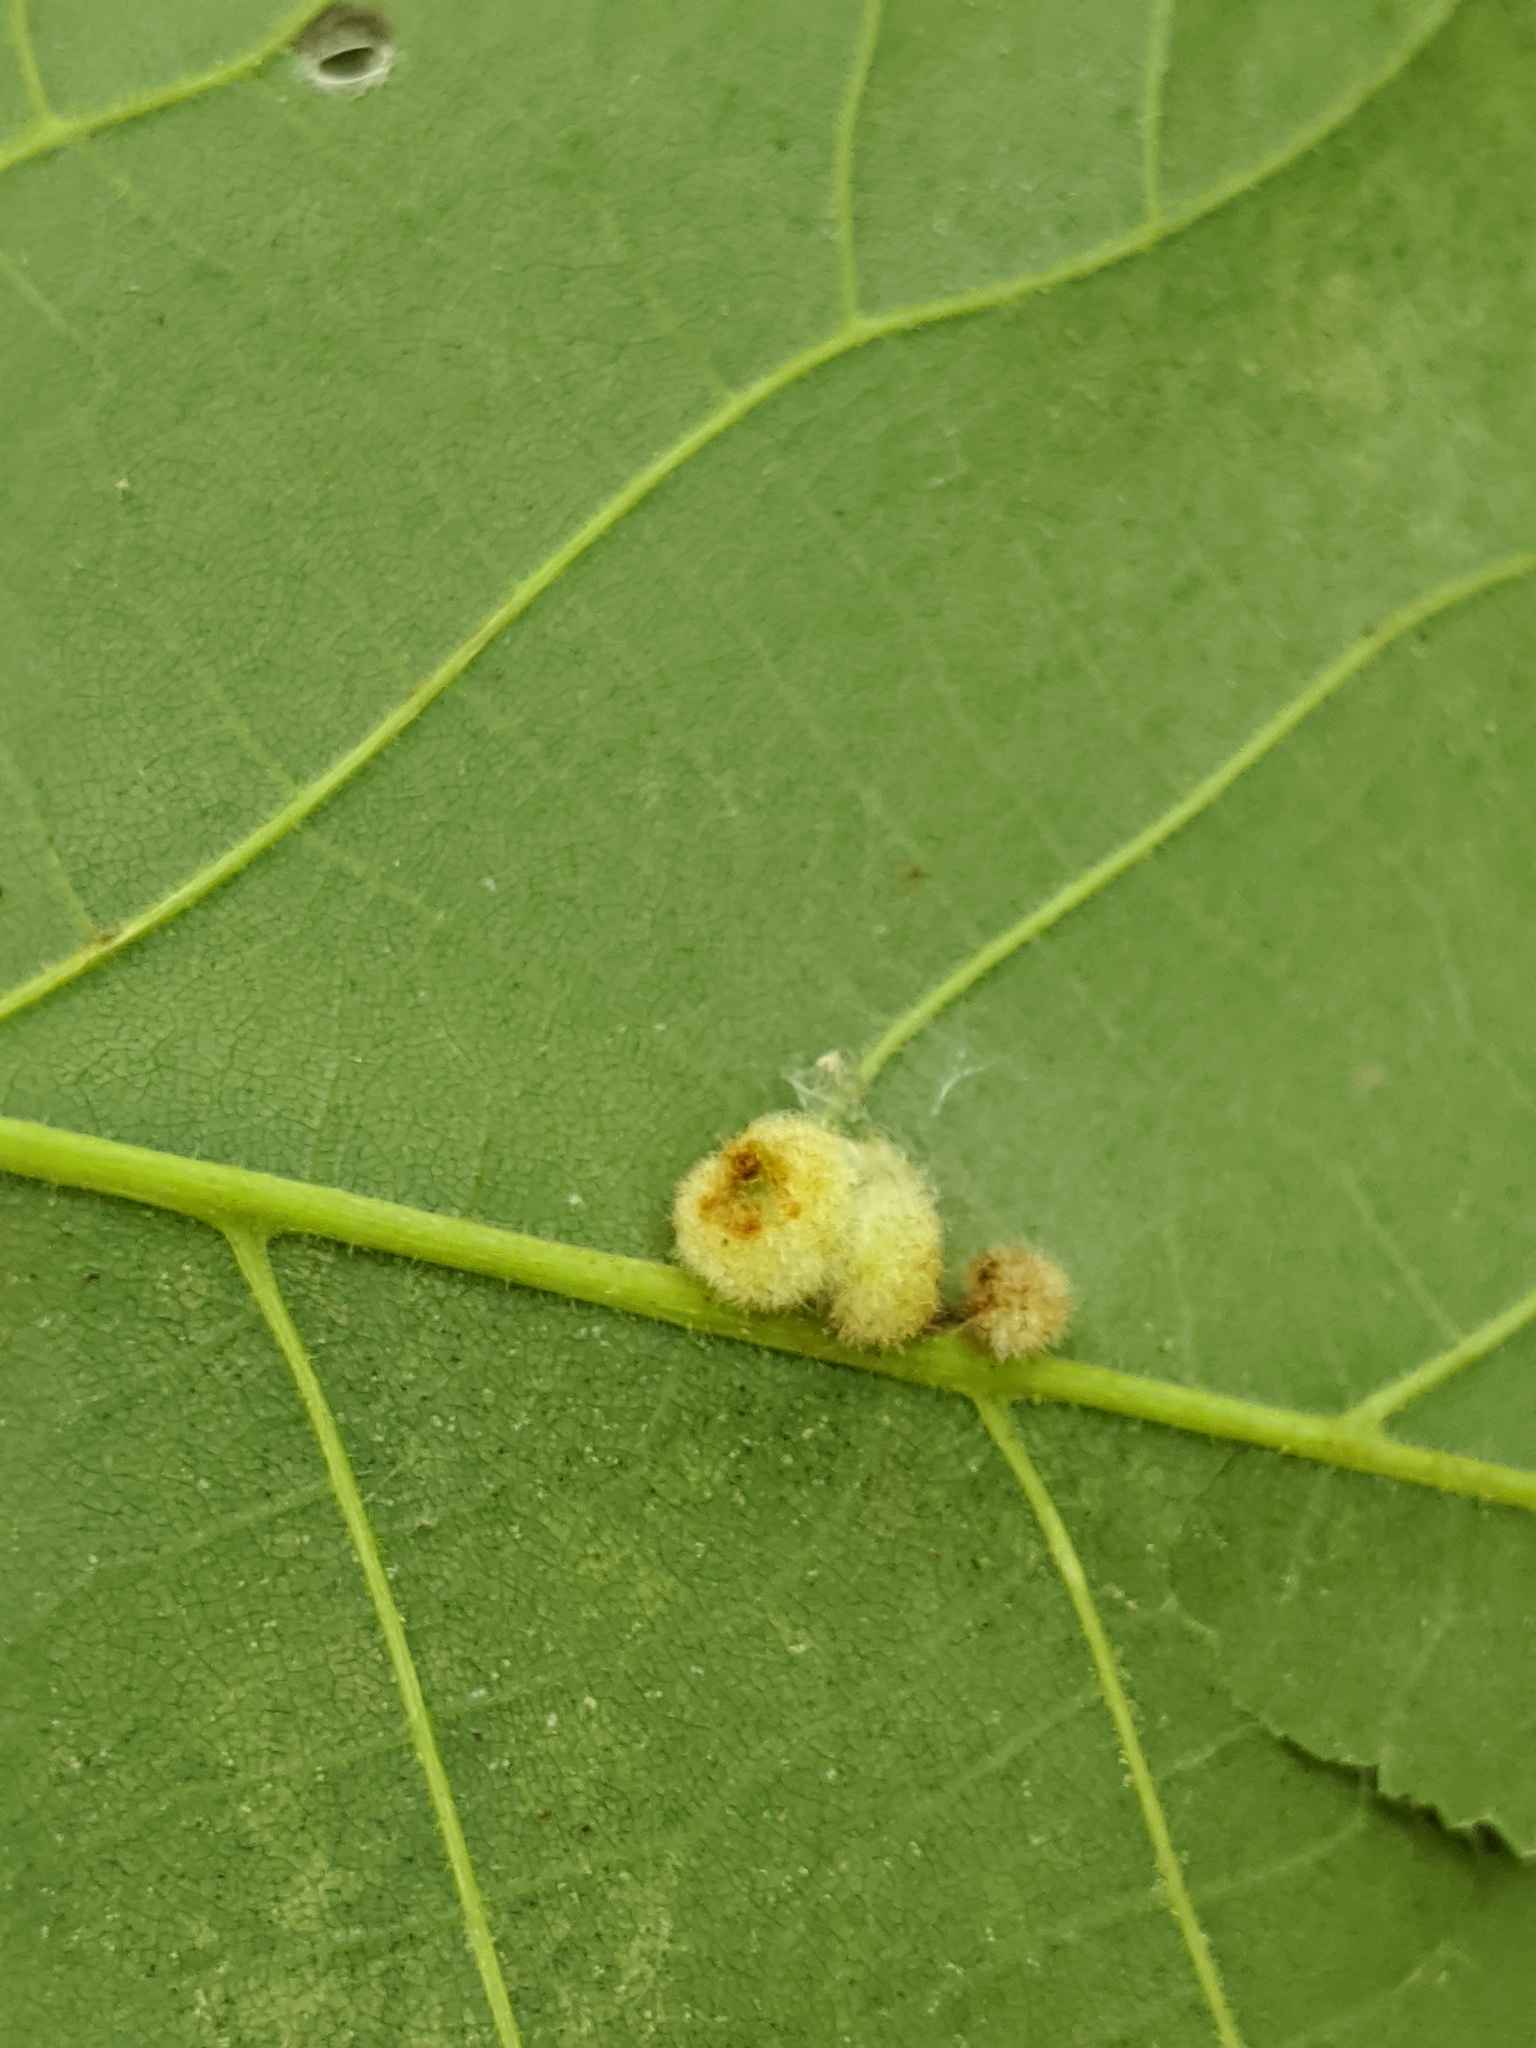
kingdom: Animalia
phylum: Arthropoda
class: Insecta
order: Diptera
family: Cecidomyiidae
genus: Caryomyia
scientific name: Caryomyia aggregata
